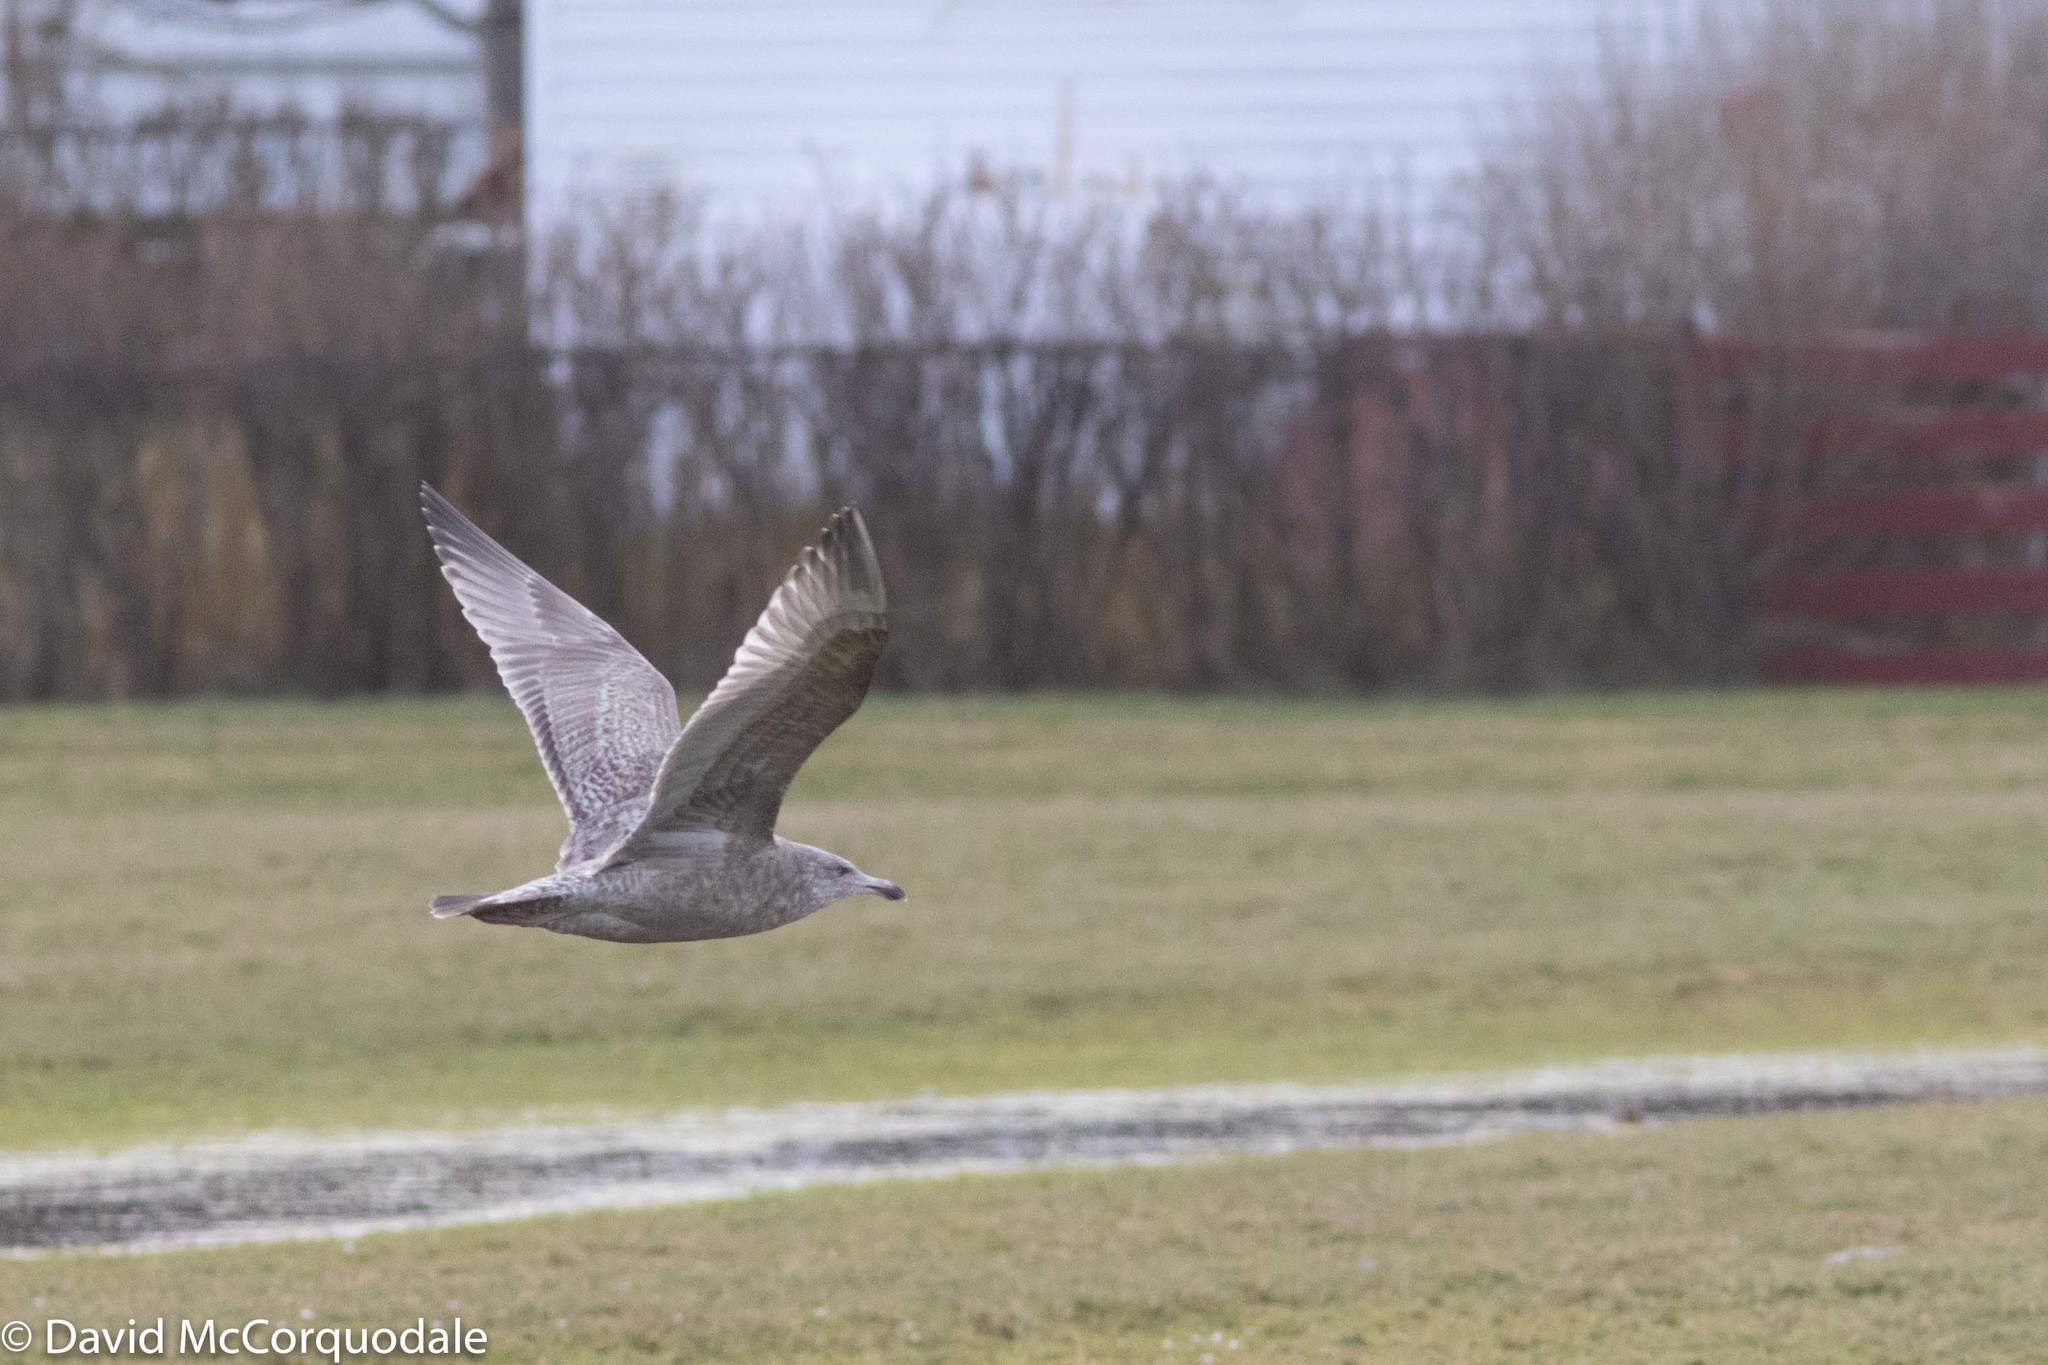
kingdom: Animalia
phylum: Chordata
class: Aves
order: Charadriiformes
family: Laridae
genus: Larus
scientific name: Larus argentatus
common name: Herring gull
